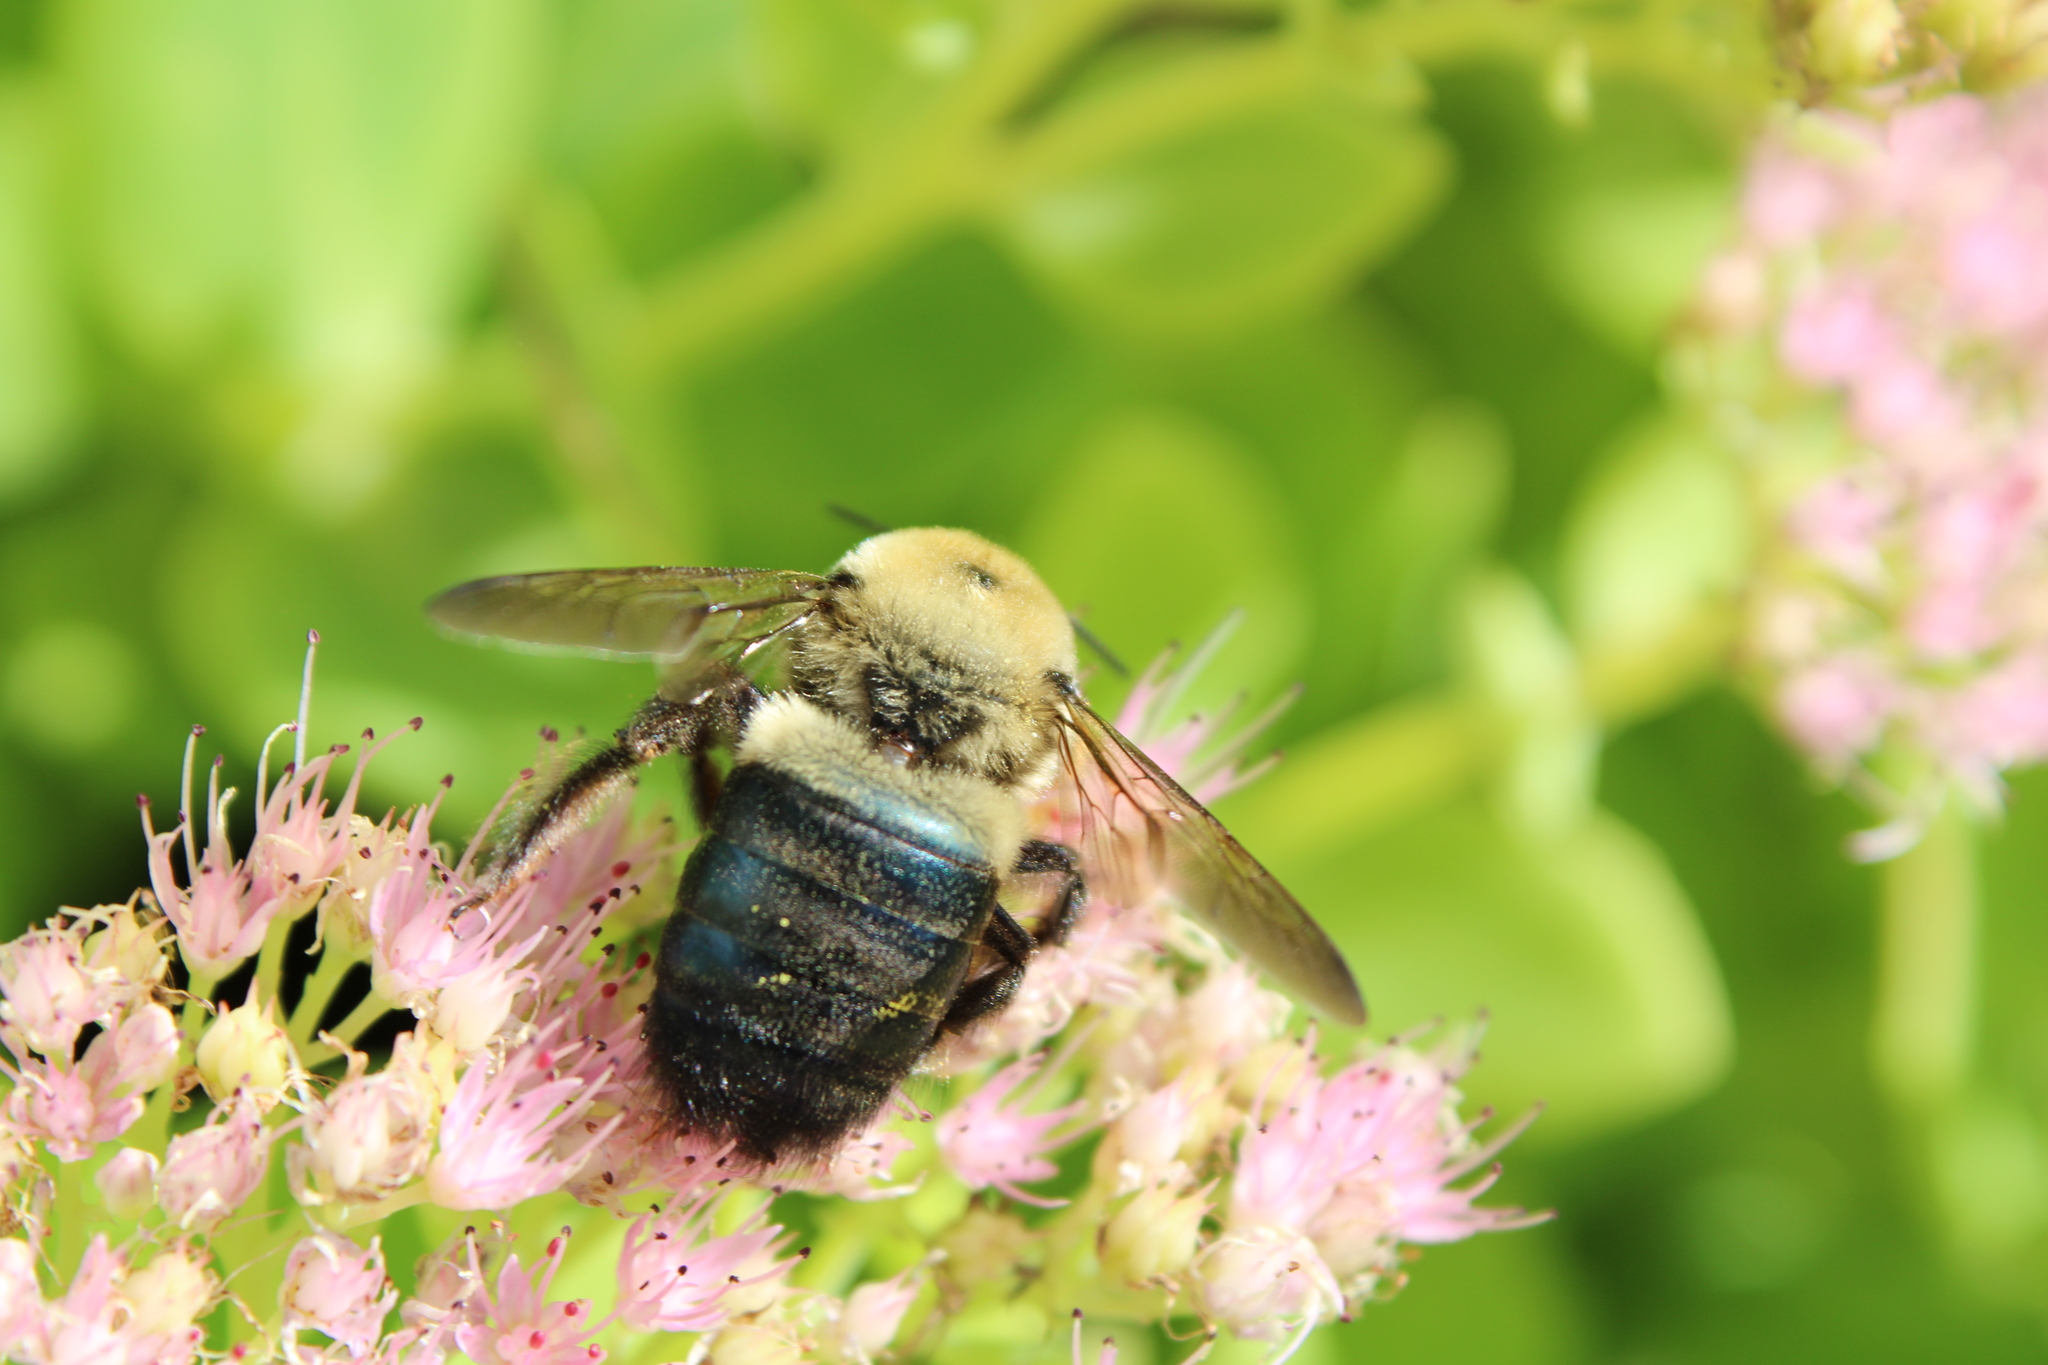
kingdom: Animalia
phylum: Arthropoda
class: Insecta
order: Hymenoptera
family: Apidae
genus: Xylocopa
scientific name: Xylocopa virginica
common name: Carpenter bee
